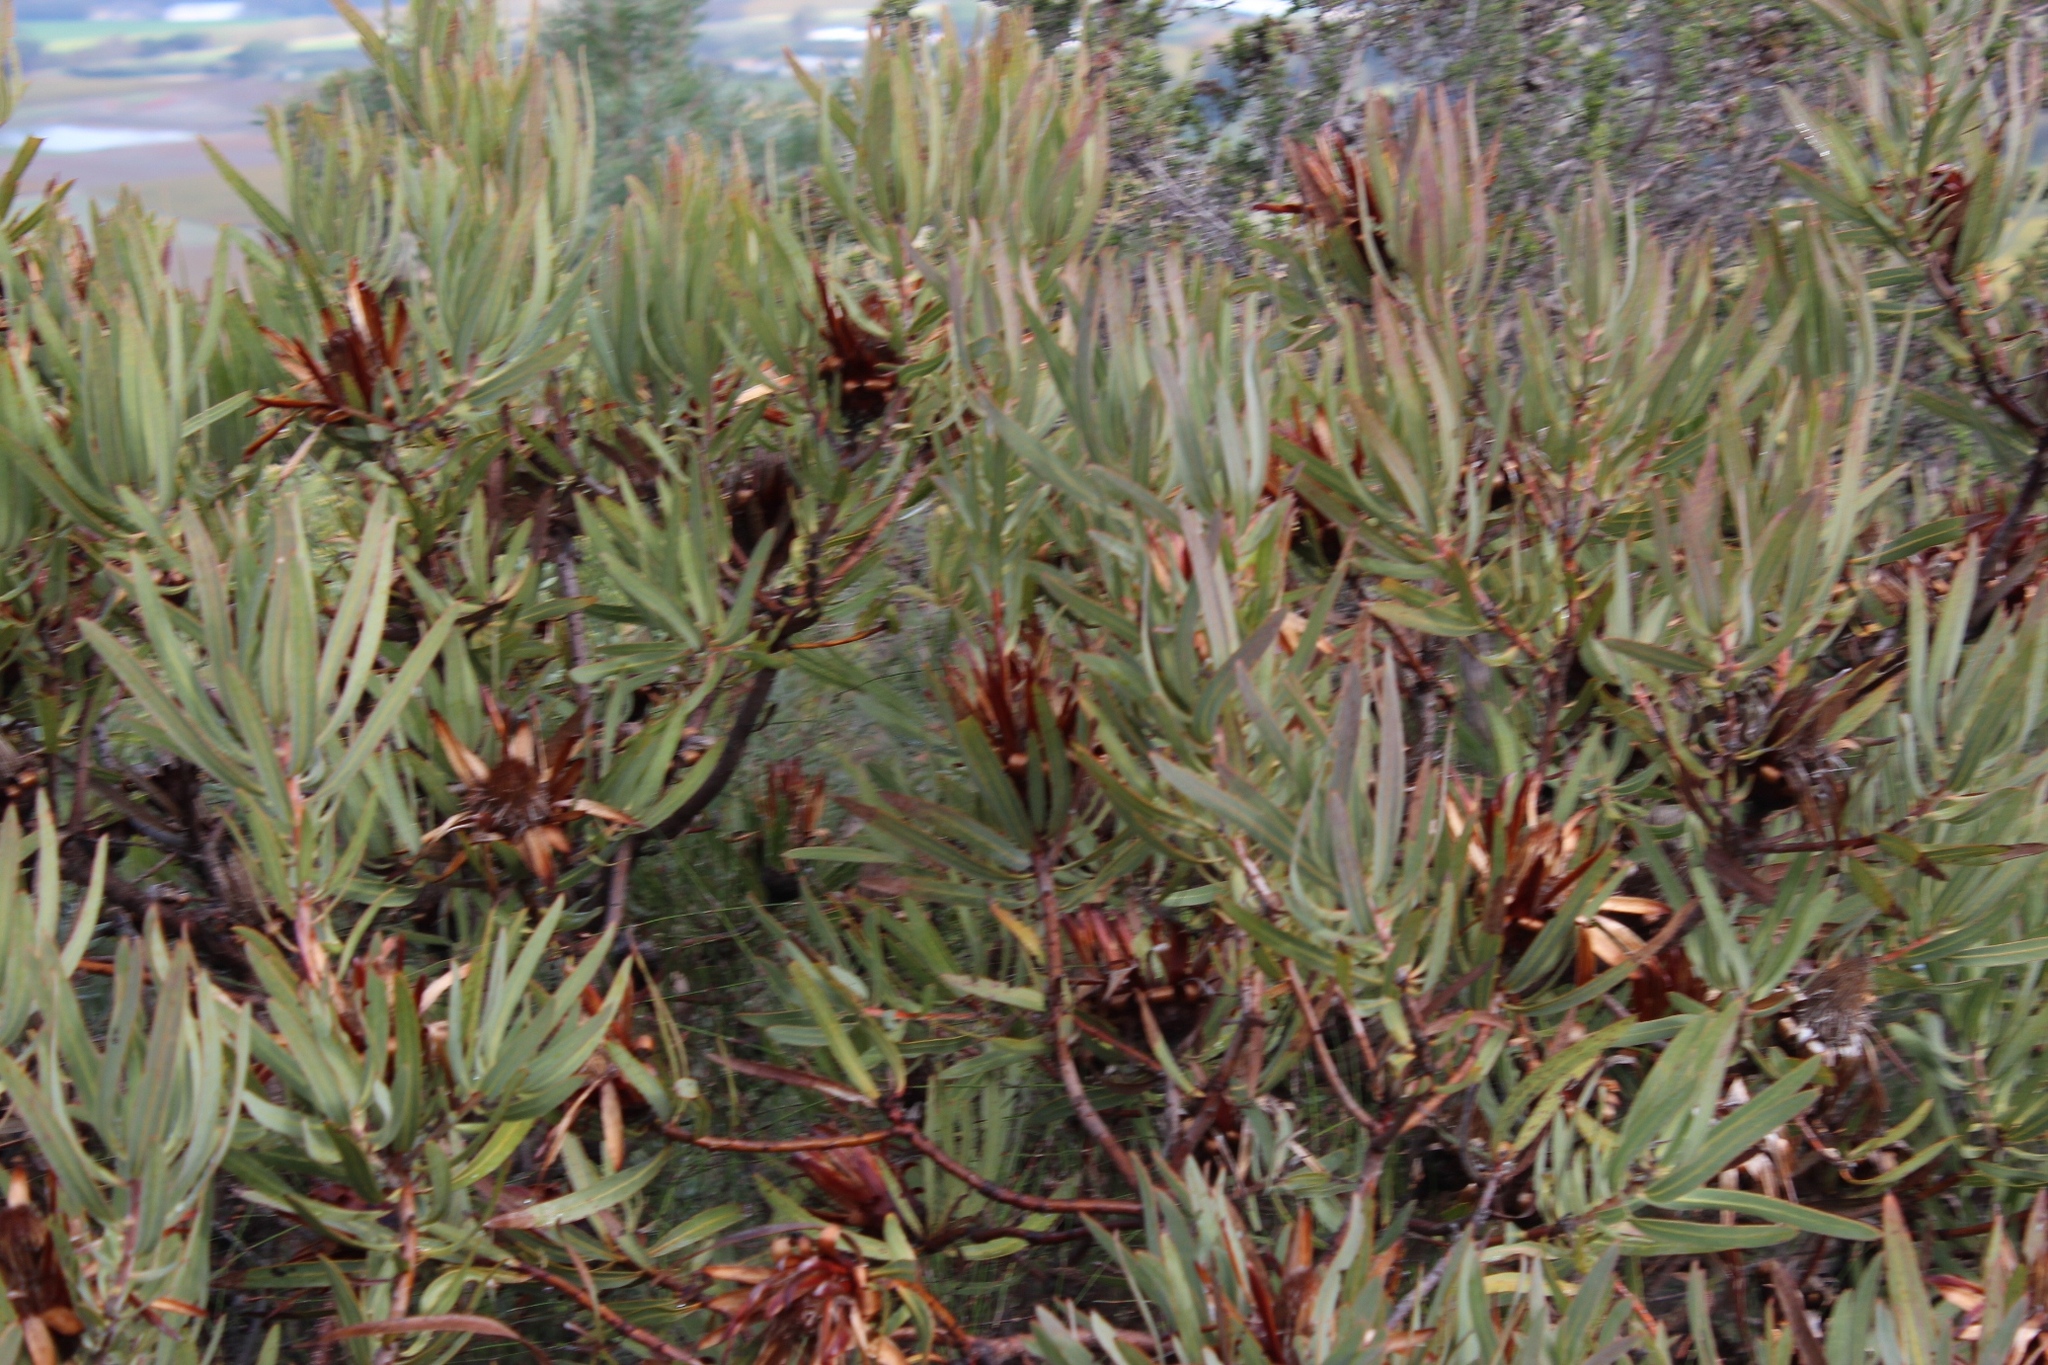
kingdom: Plantae
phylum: Tracheophyta
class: Magnoliopsida
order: Proteales
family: Proteaceae
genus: Protea
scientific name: Protea burchellii
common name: Burchell's sugarbush
